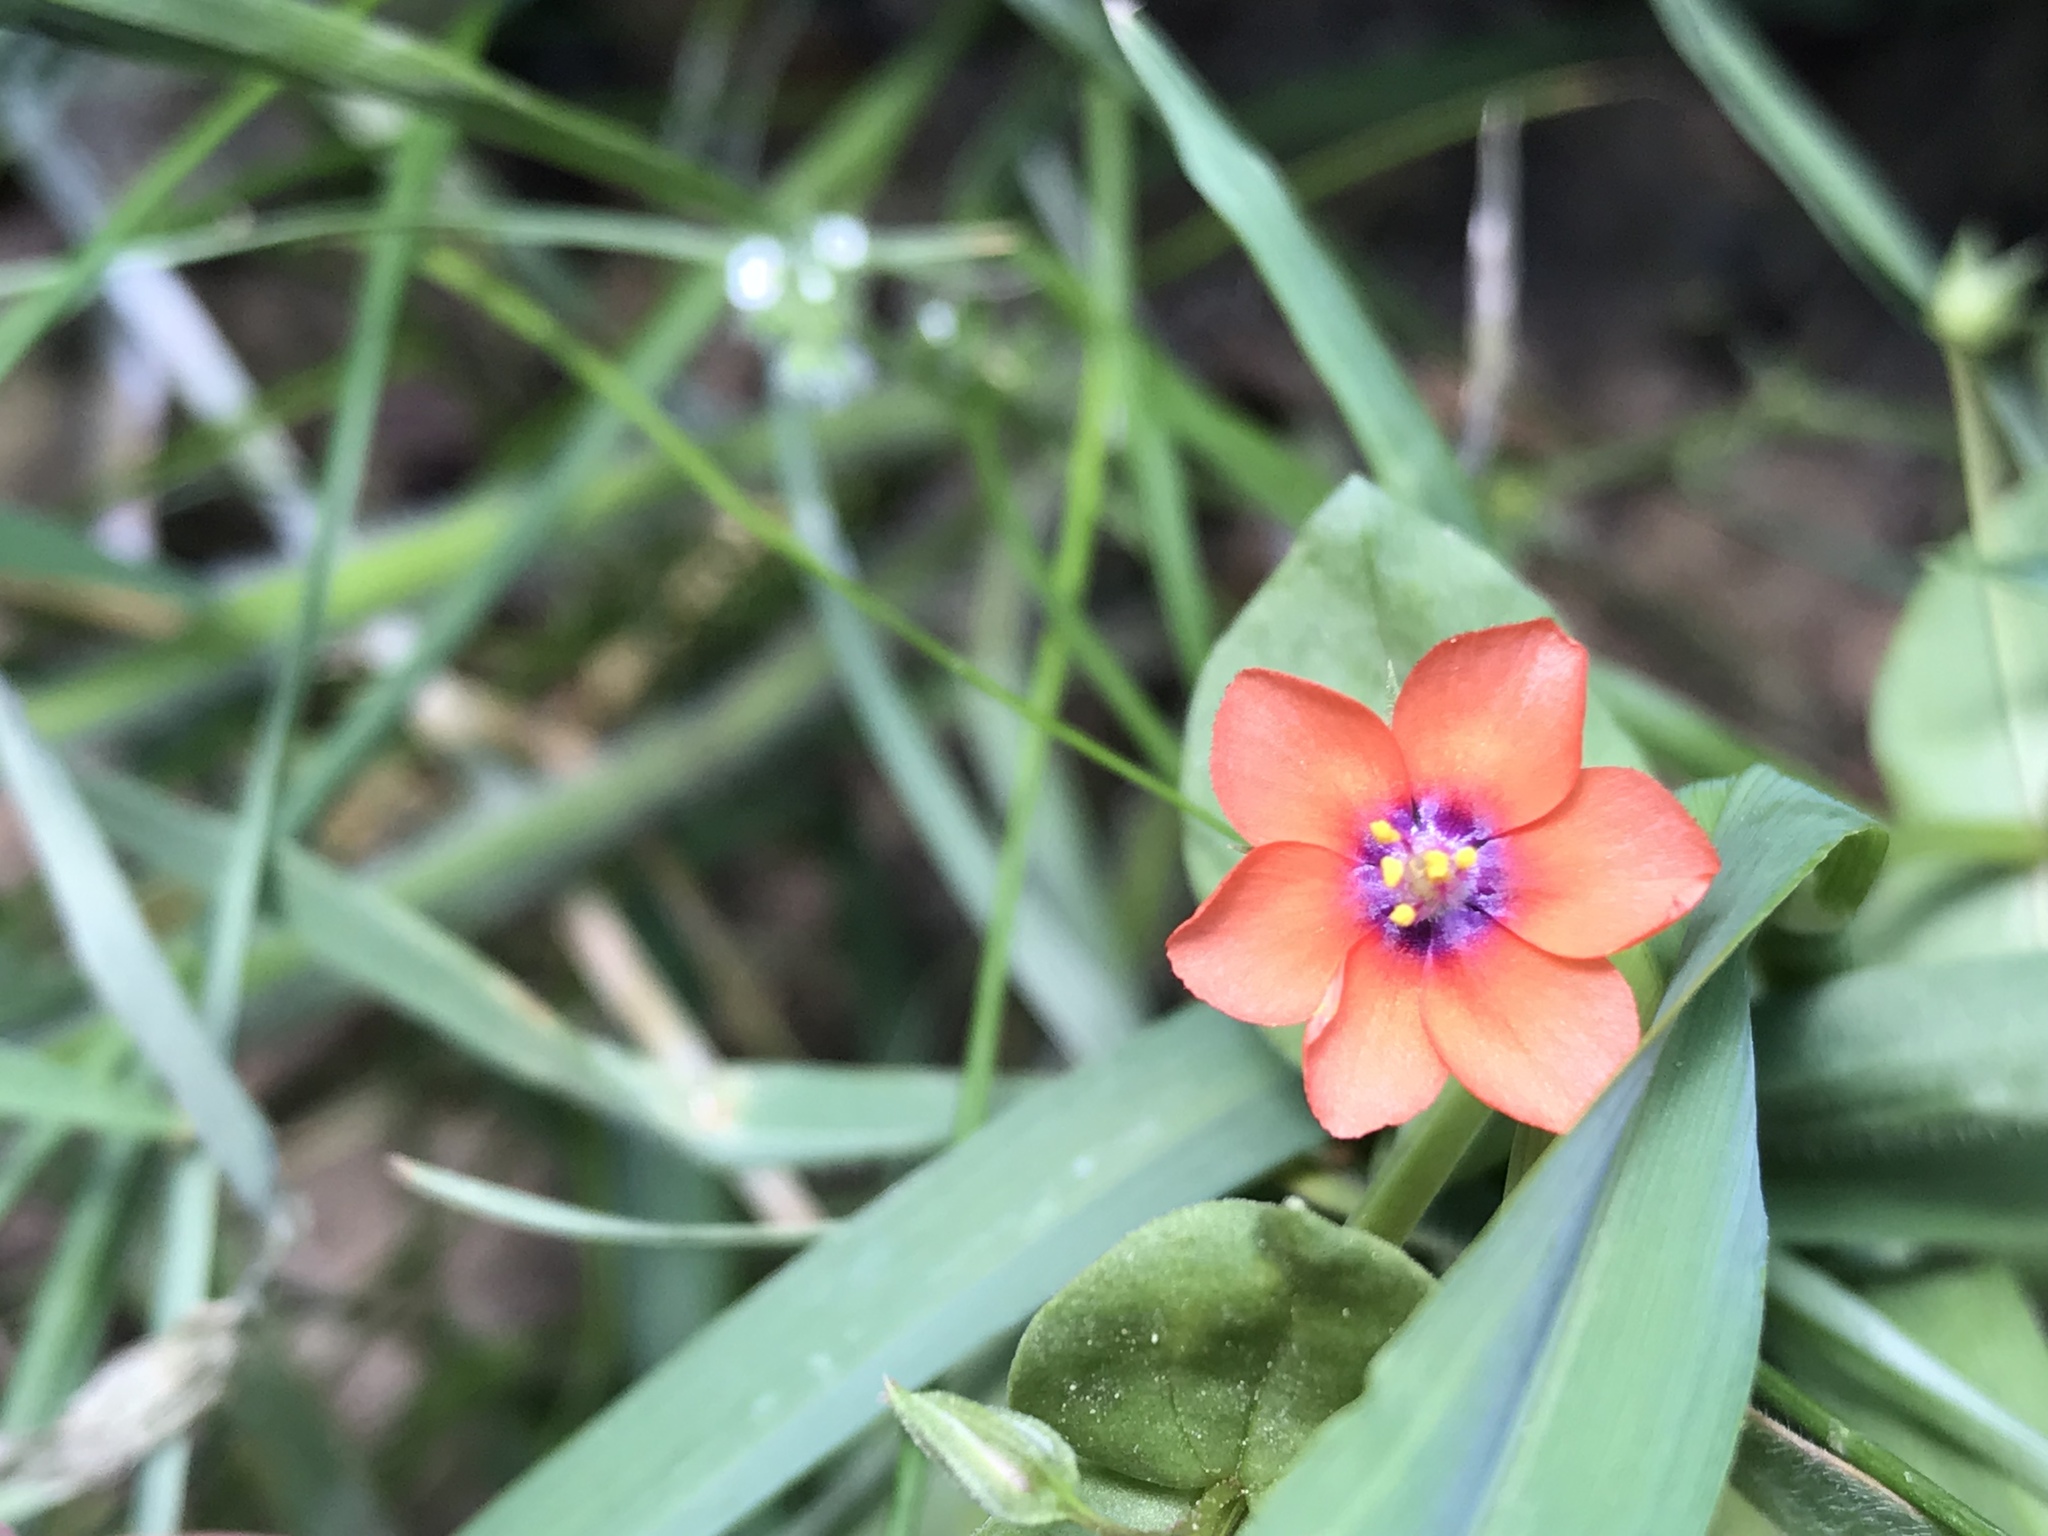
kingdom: Plantae
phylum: Tracheophyta
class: Magnoliopsida
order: Ericales
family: Primulaceae
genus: Lysimachia
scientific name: Lysimachia arvensis
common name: Scarlet pimpernel
